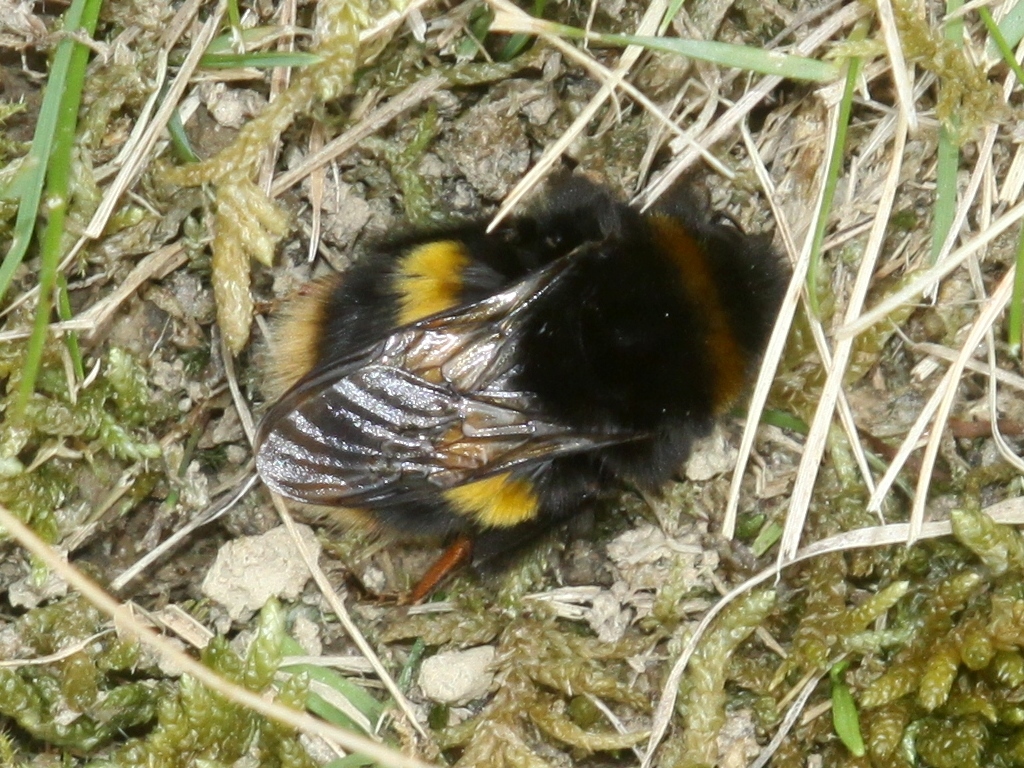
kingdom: Animalia
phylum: Arthropoda
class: Insecta
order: Hymenoptera
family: Apidae
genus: Bombus
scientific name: Bombus terrestris
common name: Buff-tailed bumblebee
